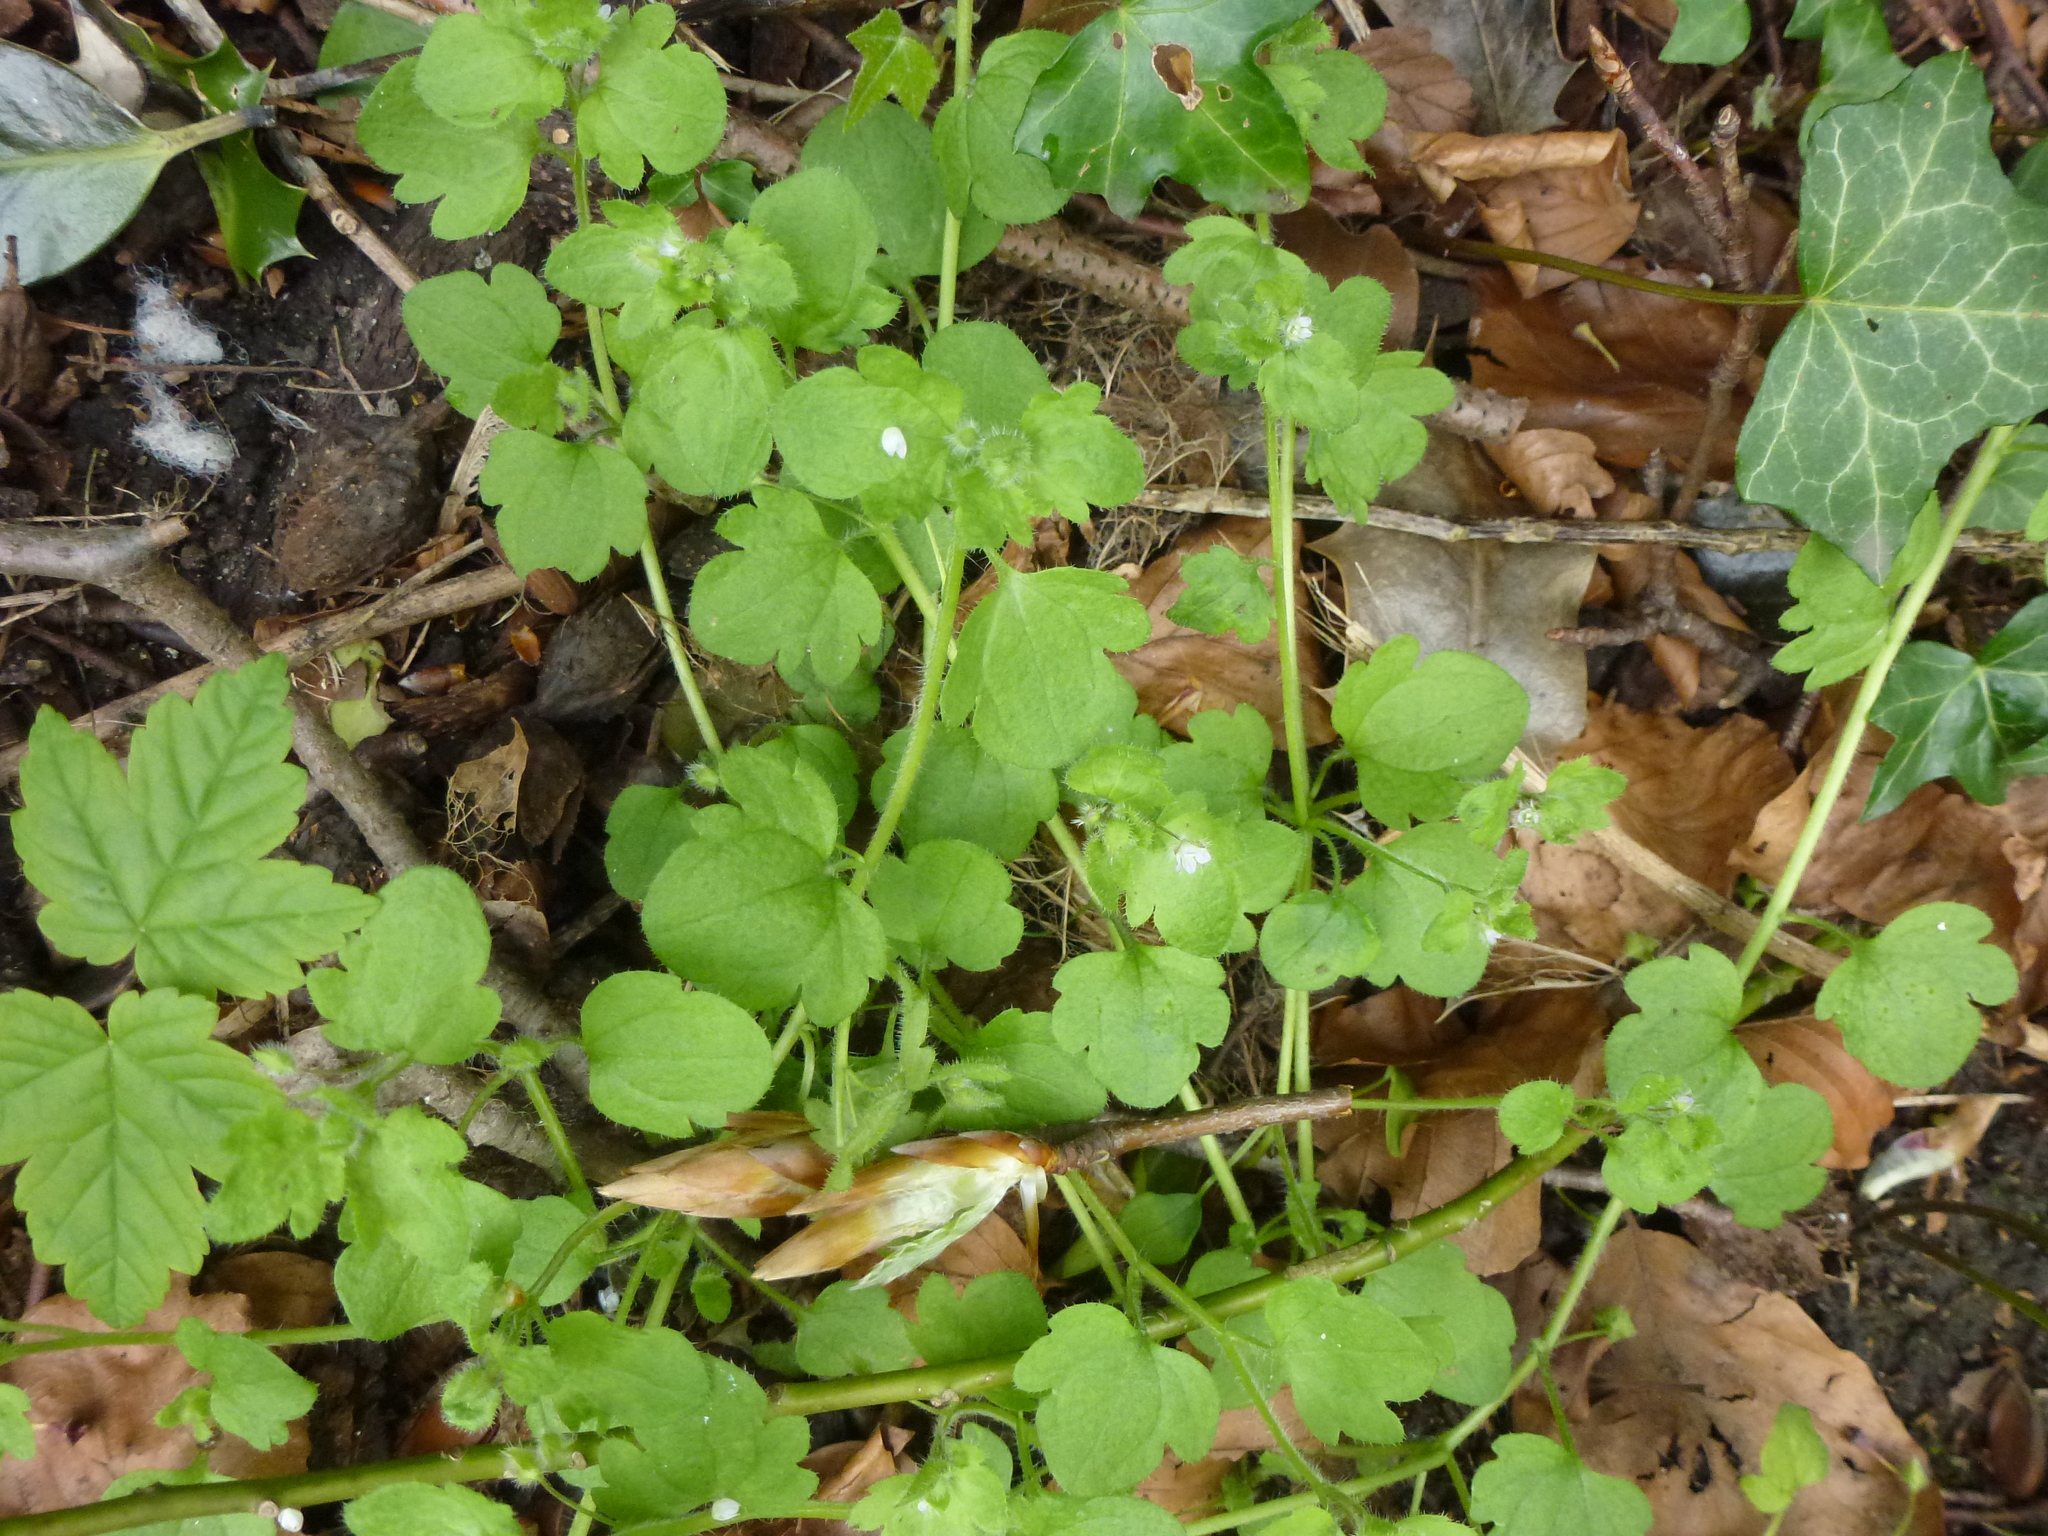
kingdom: Plantae
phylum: Tracheophyta
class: Magnoliopsida
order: Lamiales
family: Plantaginaceae
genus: Veronica
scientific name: Veronica hederifolia
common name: Ivy-leaved speedwell
